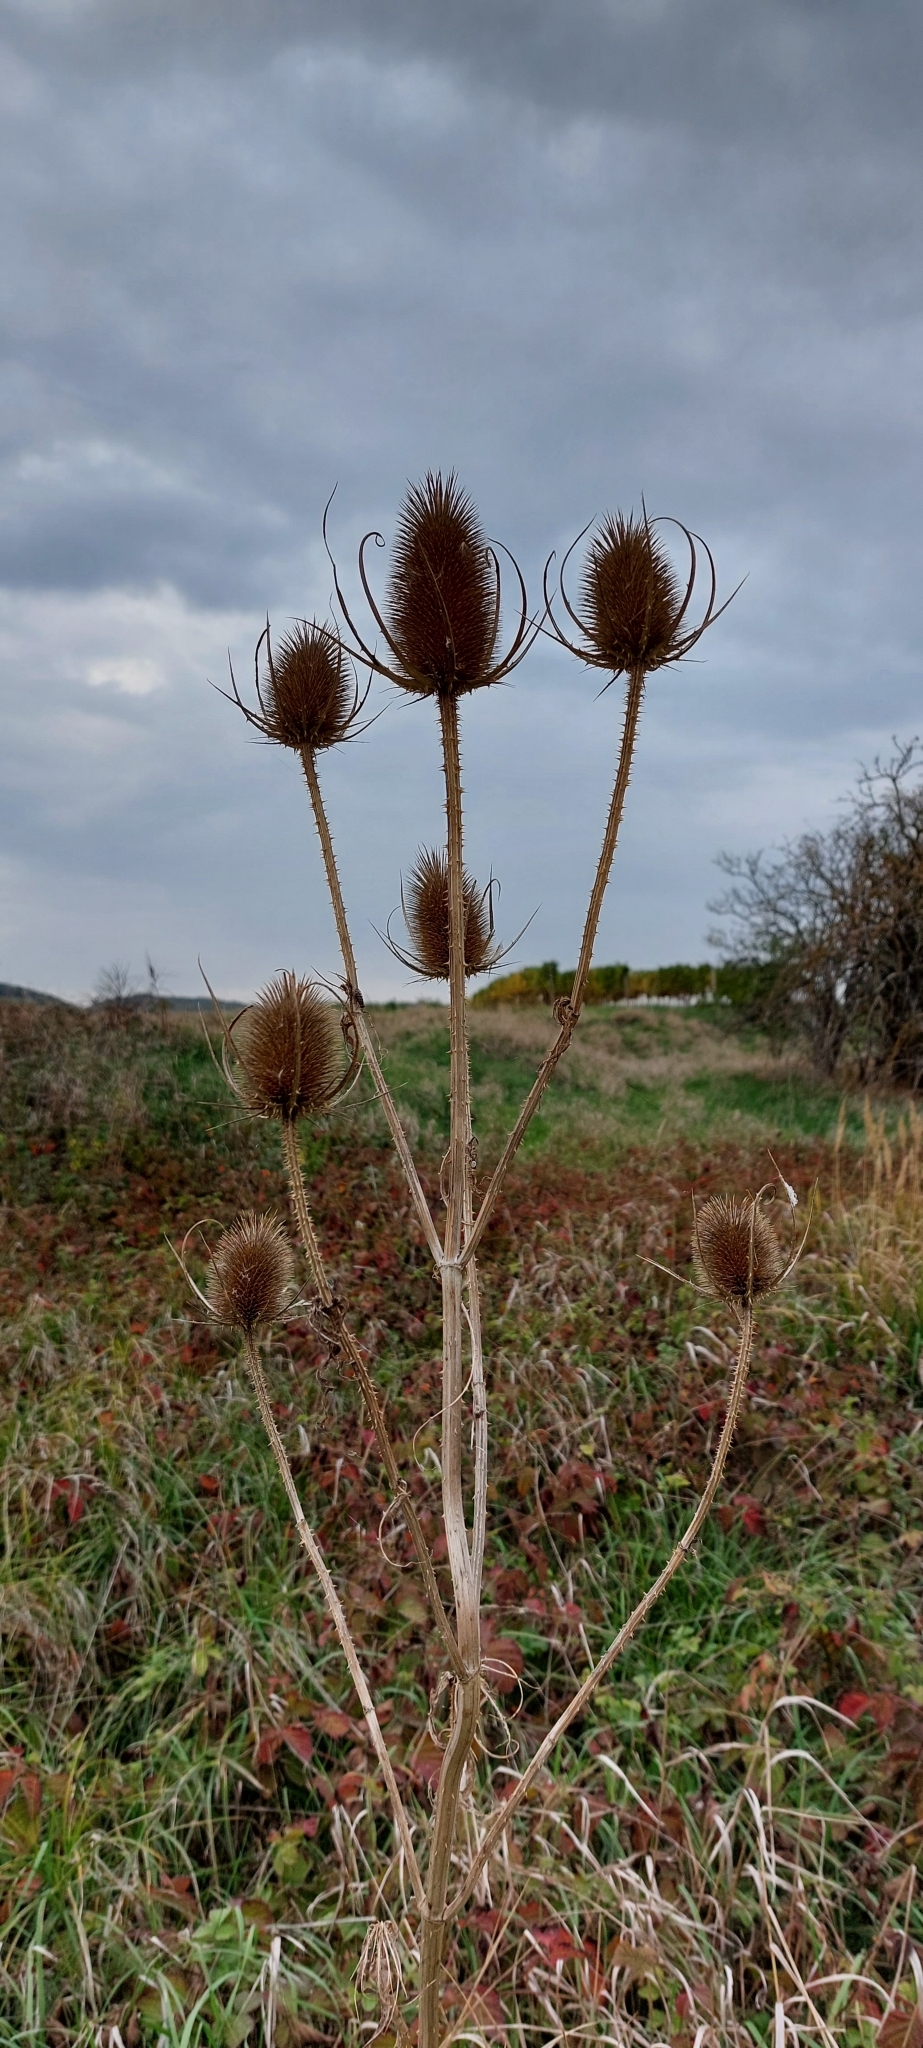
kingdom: Plantae
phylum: Tracheophyta
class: Magnoliopsida
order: Dipsacales
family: Caprifoliaceae
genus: Dipsacus
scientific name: Dipsacus fullonum
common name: Teasel
